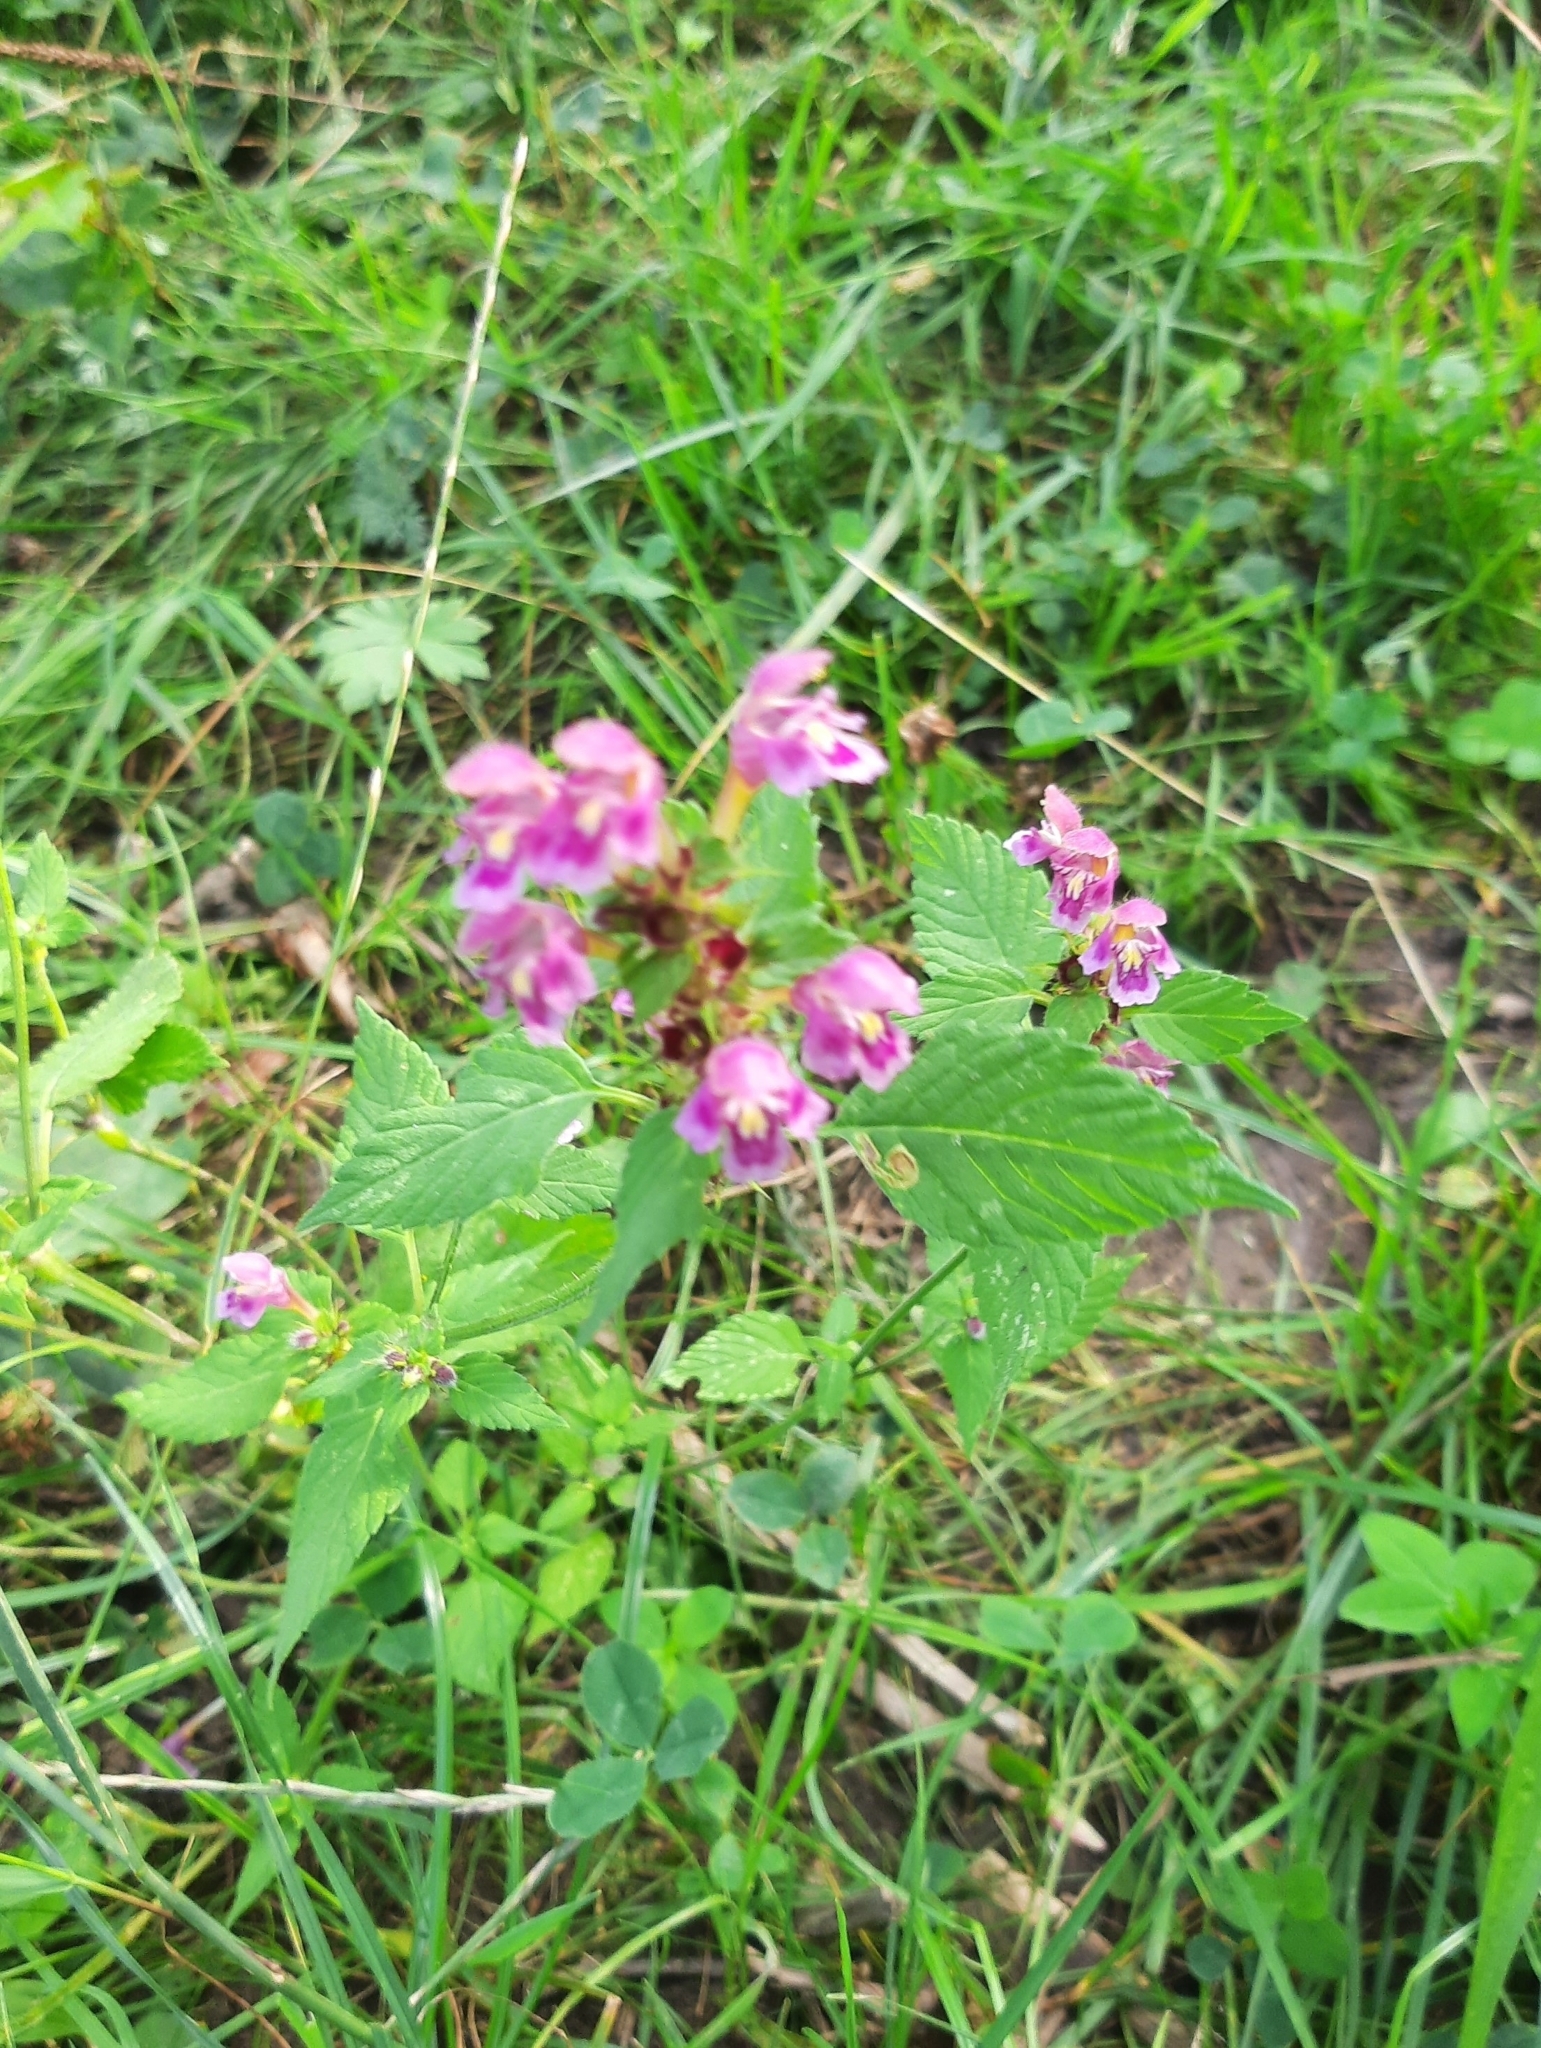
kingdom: Plantae
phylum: Tracheophyta
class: Magnoliopsida
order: Lamiales
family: Lamiaceae
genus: Galeopsis
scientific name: Galeopsis pubescens
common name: Downy hemp-nettle
